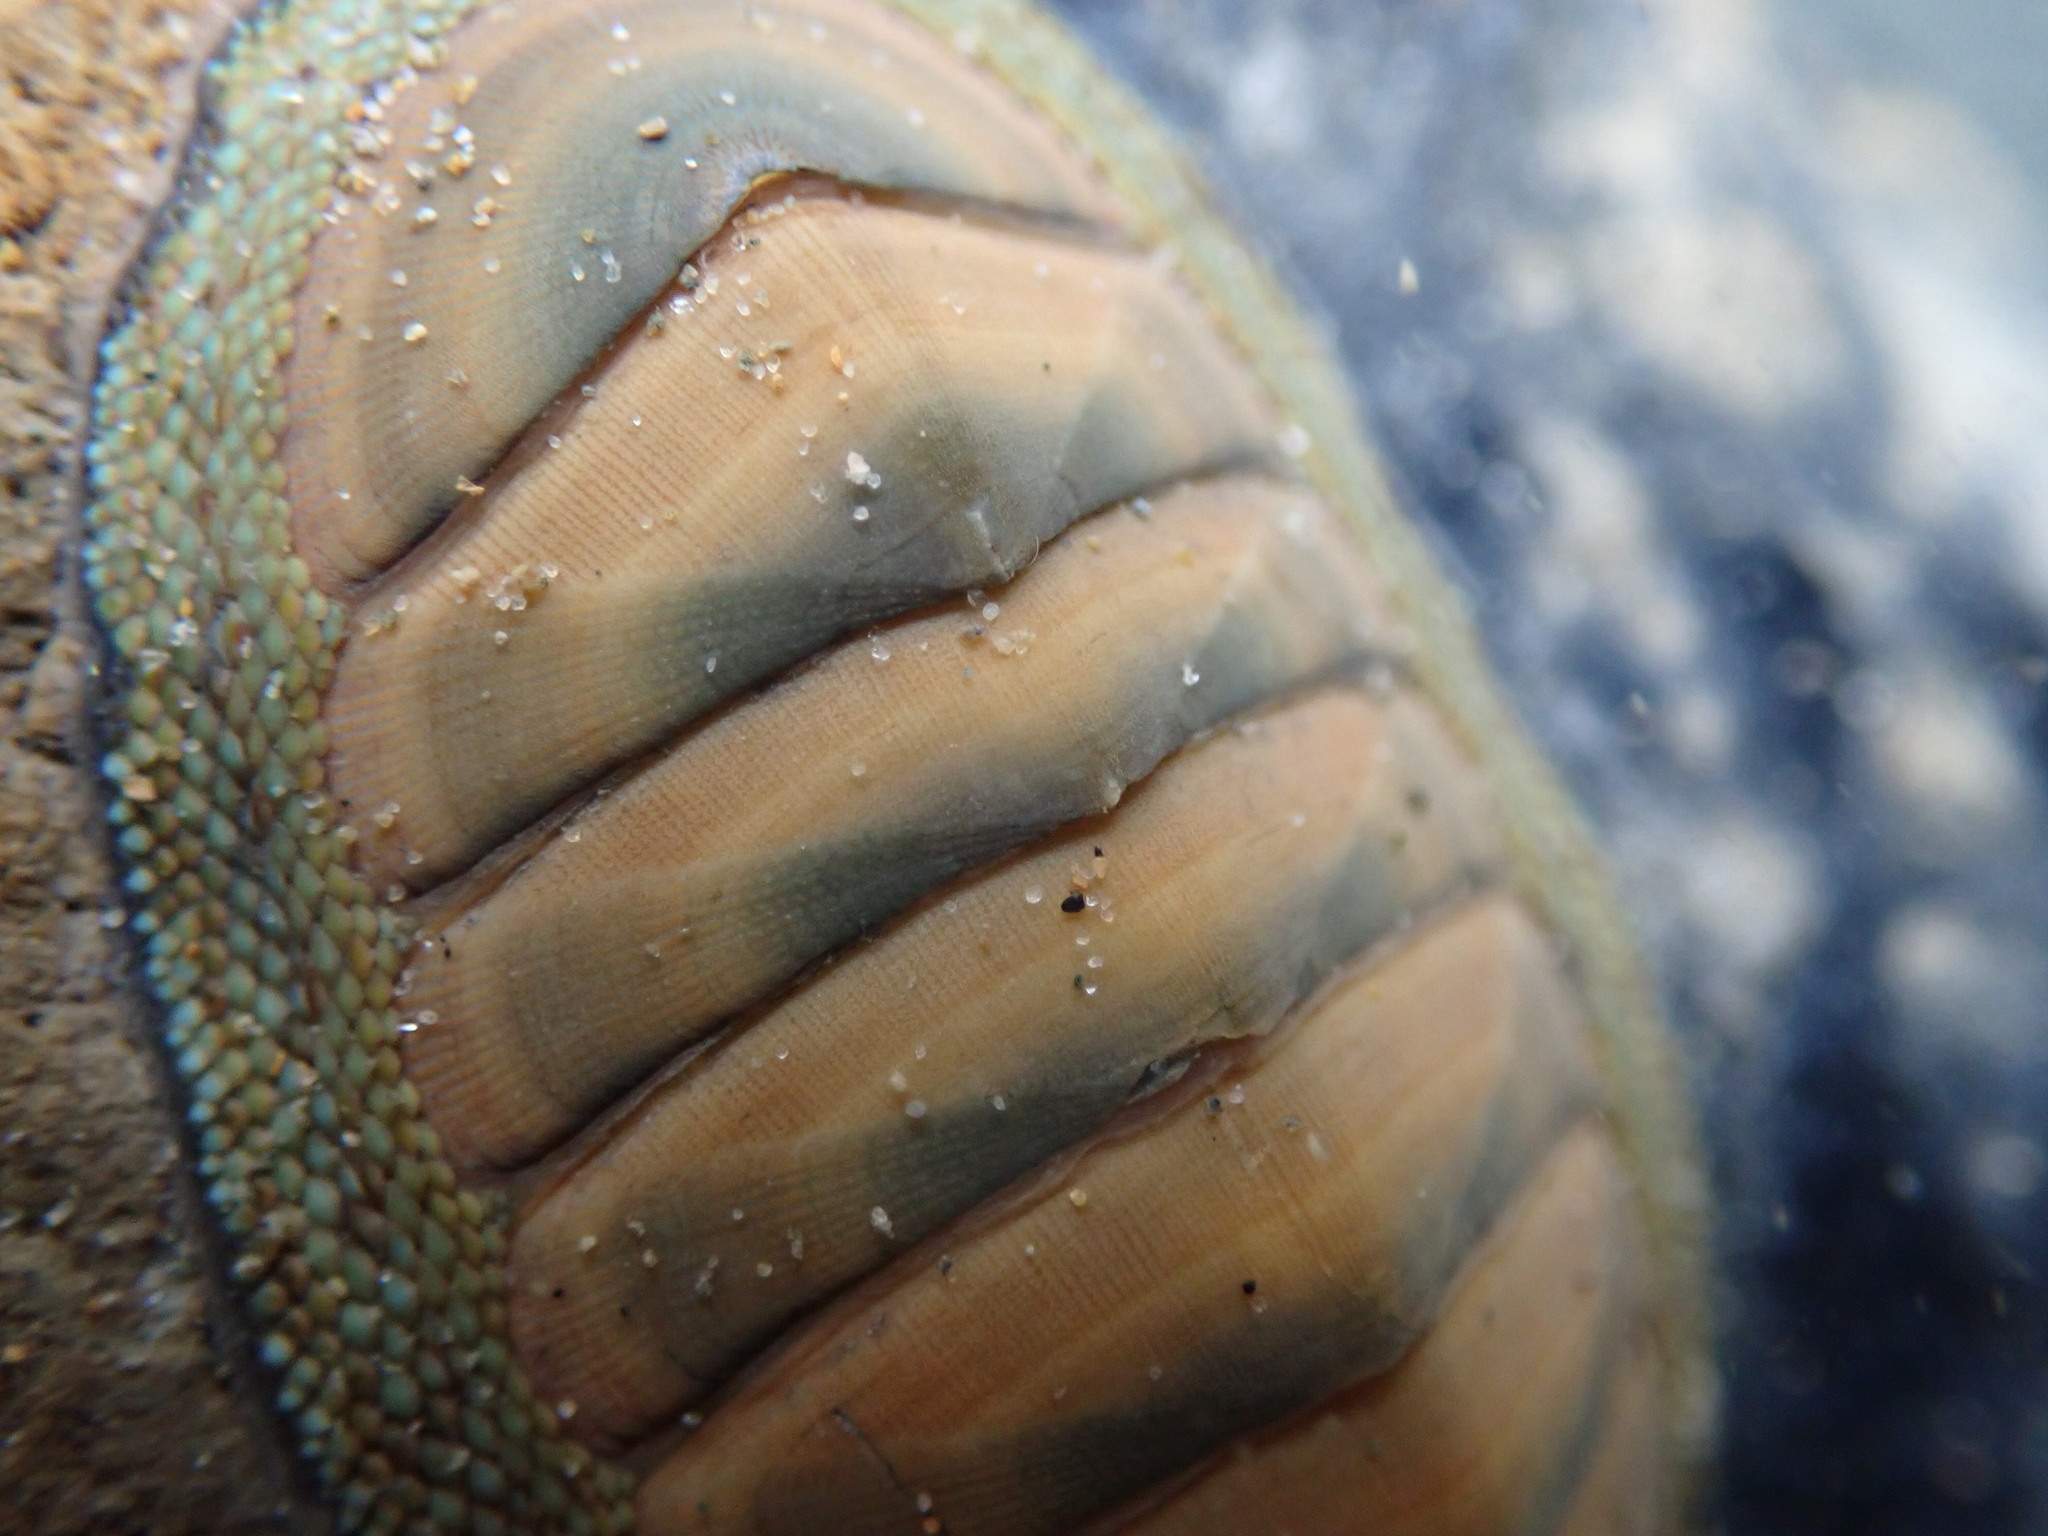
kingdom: Animalia
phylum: Mollusca
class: Polyplacophora
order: Chitonida
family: Chitonidae
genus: Chiton
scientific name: Chiton glaucus
